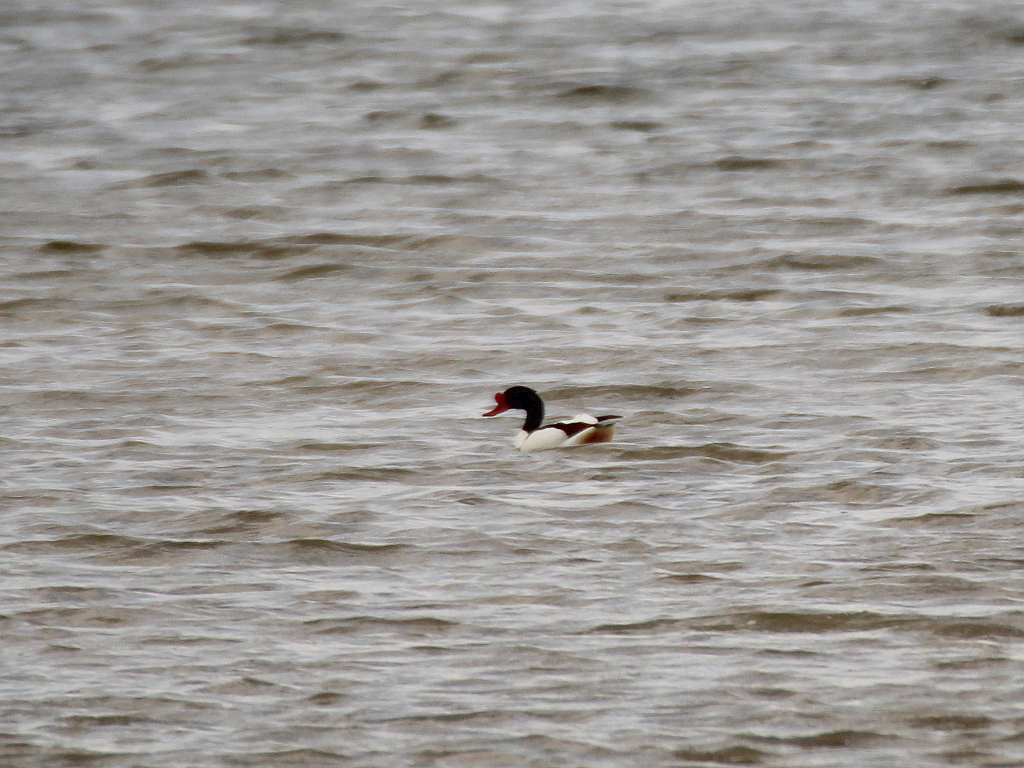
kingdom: Animalia
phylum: Chordata
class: Aves
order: Anseriformes
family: Anatidae
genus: Tadorna
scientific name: Tadorna tadorna
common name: Common shelduck
